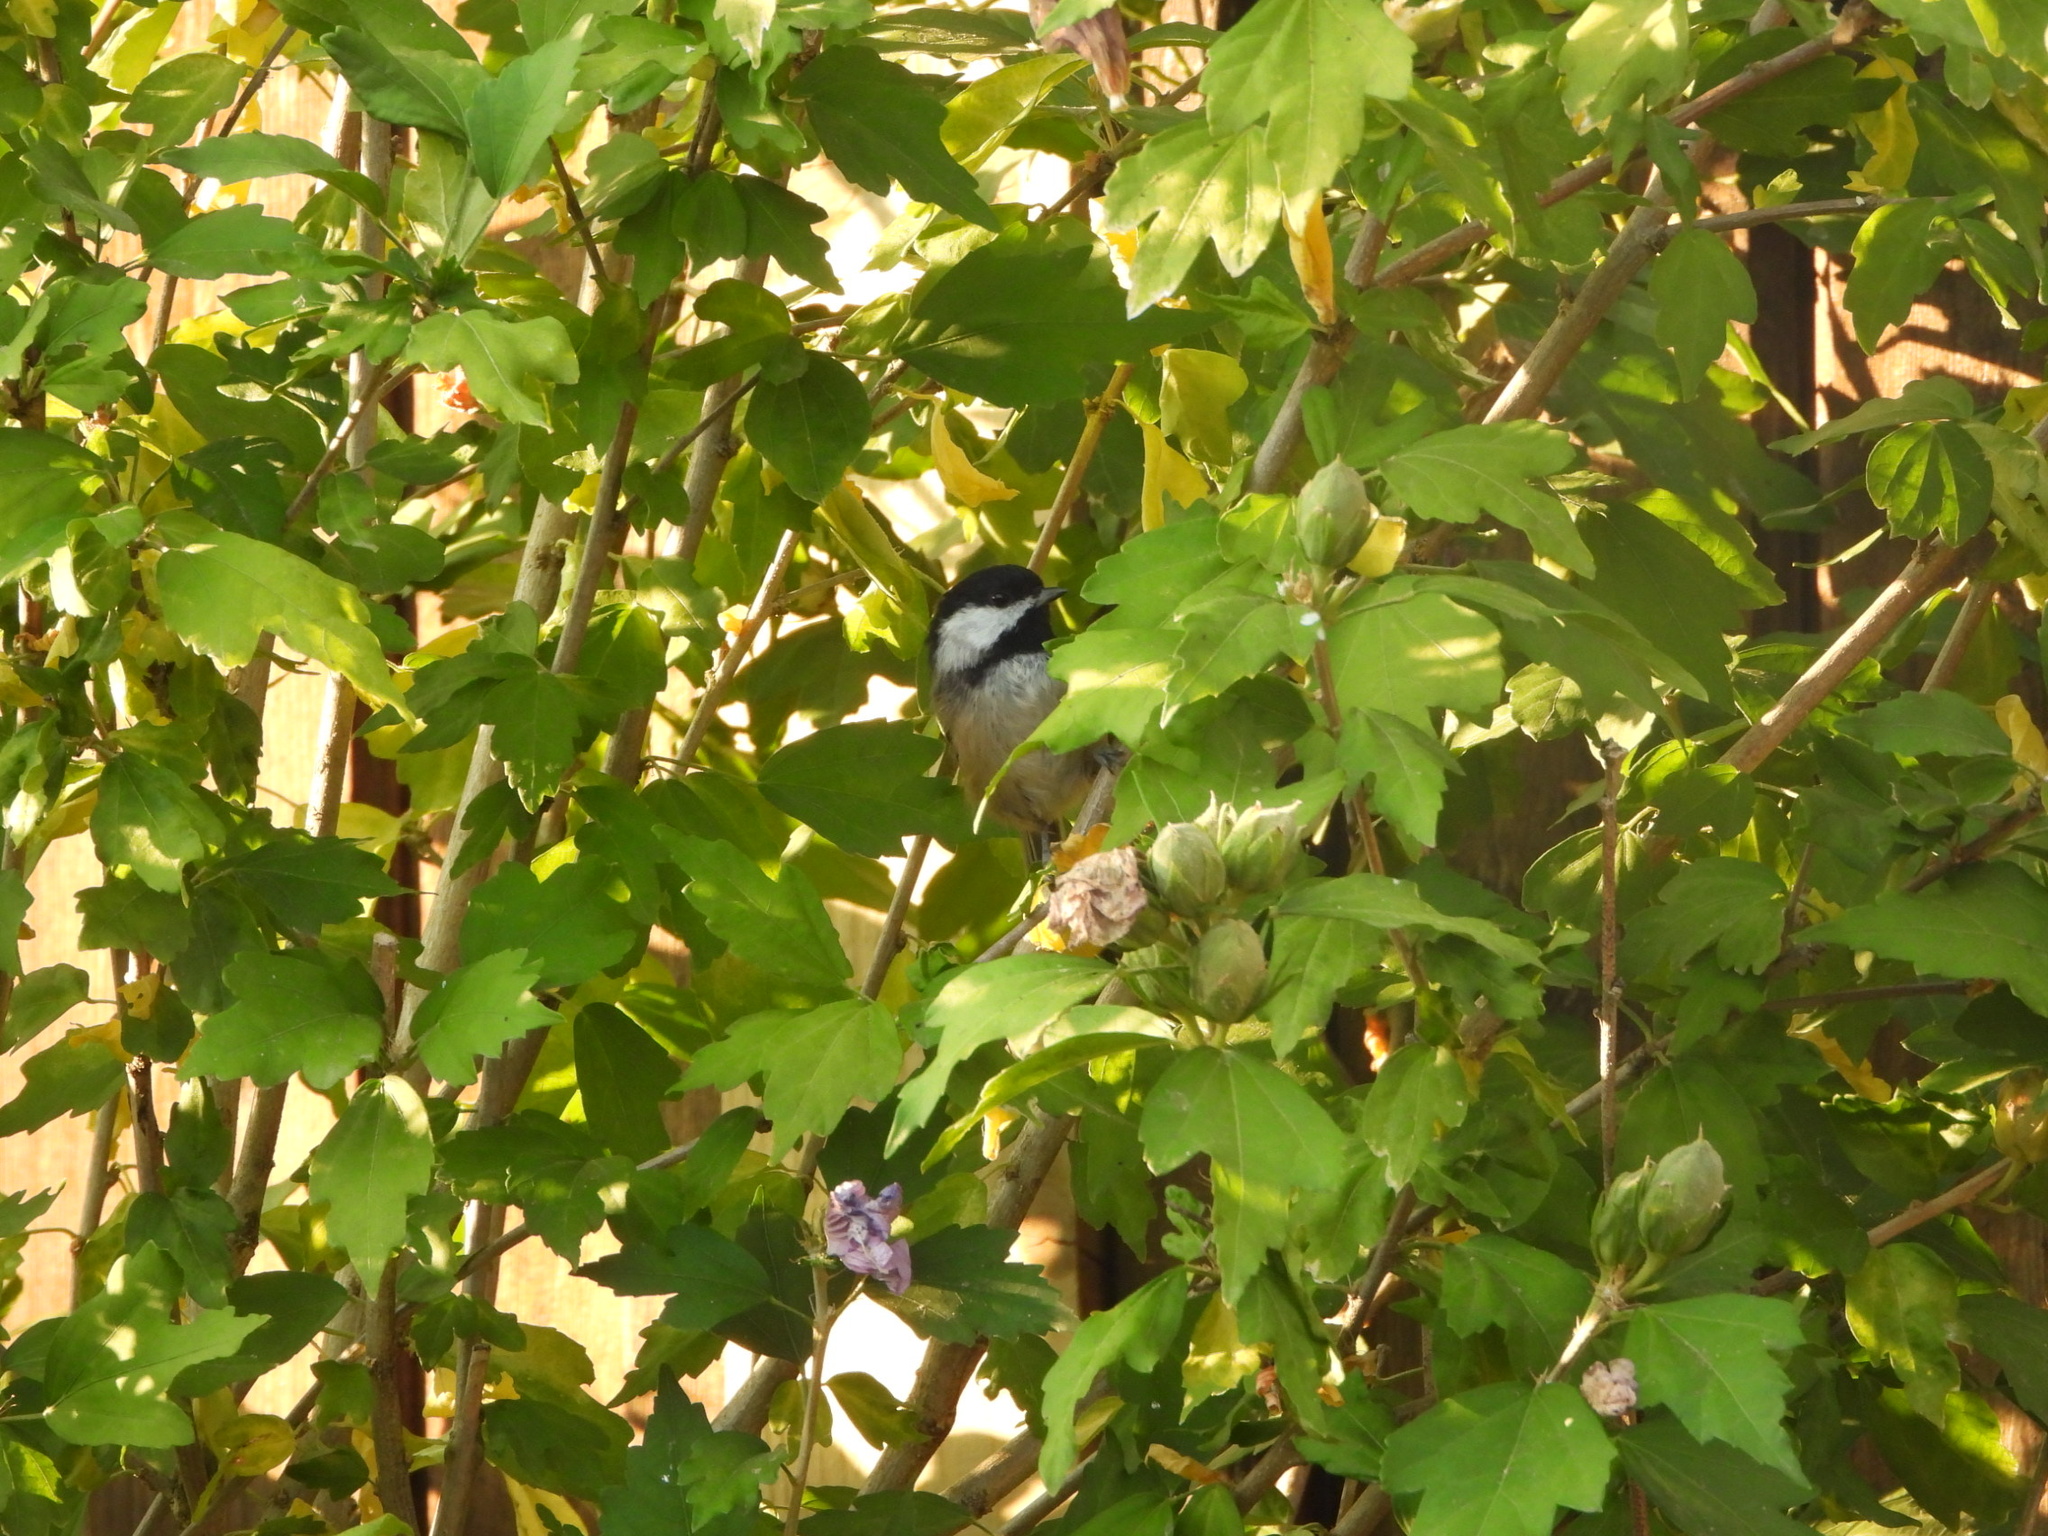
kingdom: Animalia
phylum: Chordata
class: Aves
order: Passeriformes
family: Paridae
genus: Poecile
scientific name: Poecile atricapillus
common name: Black-capped chickadee
